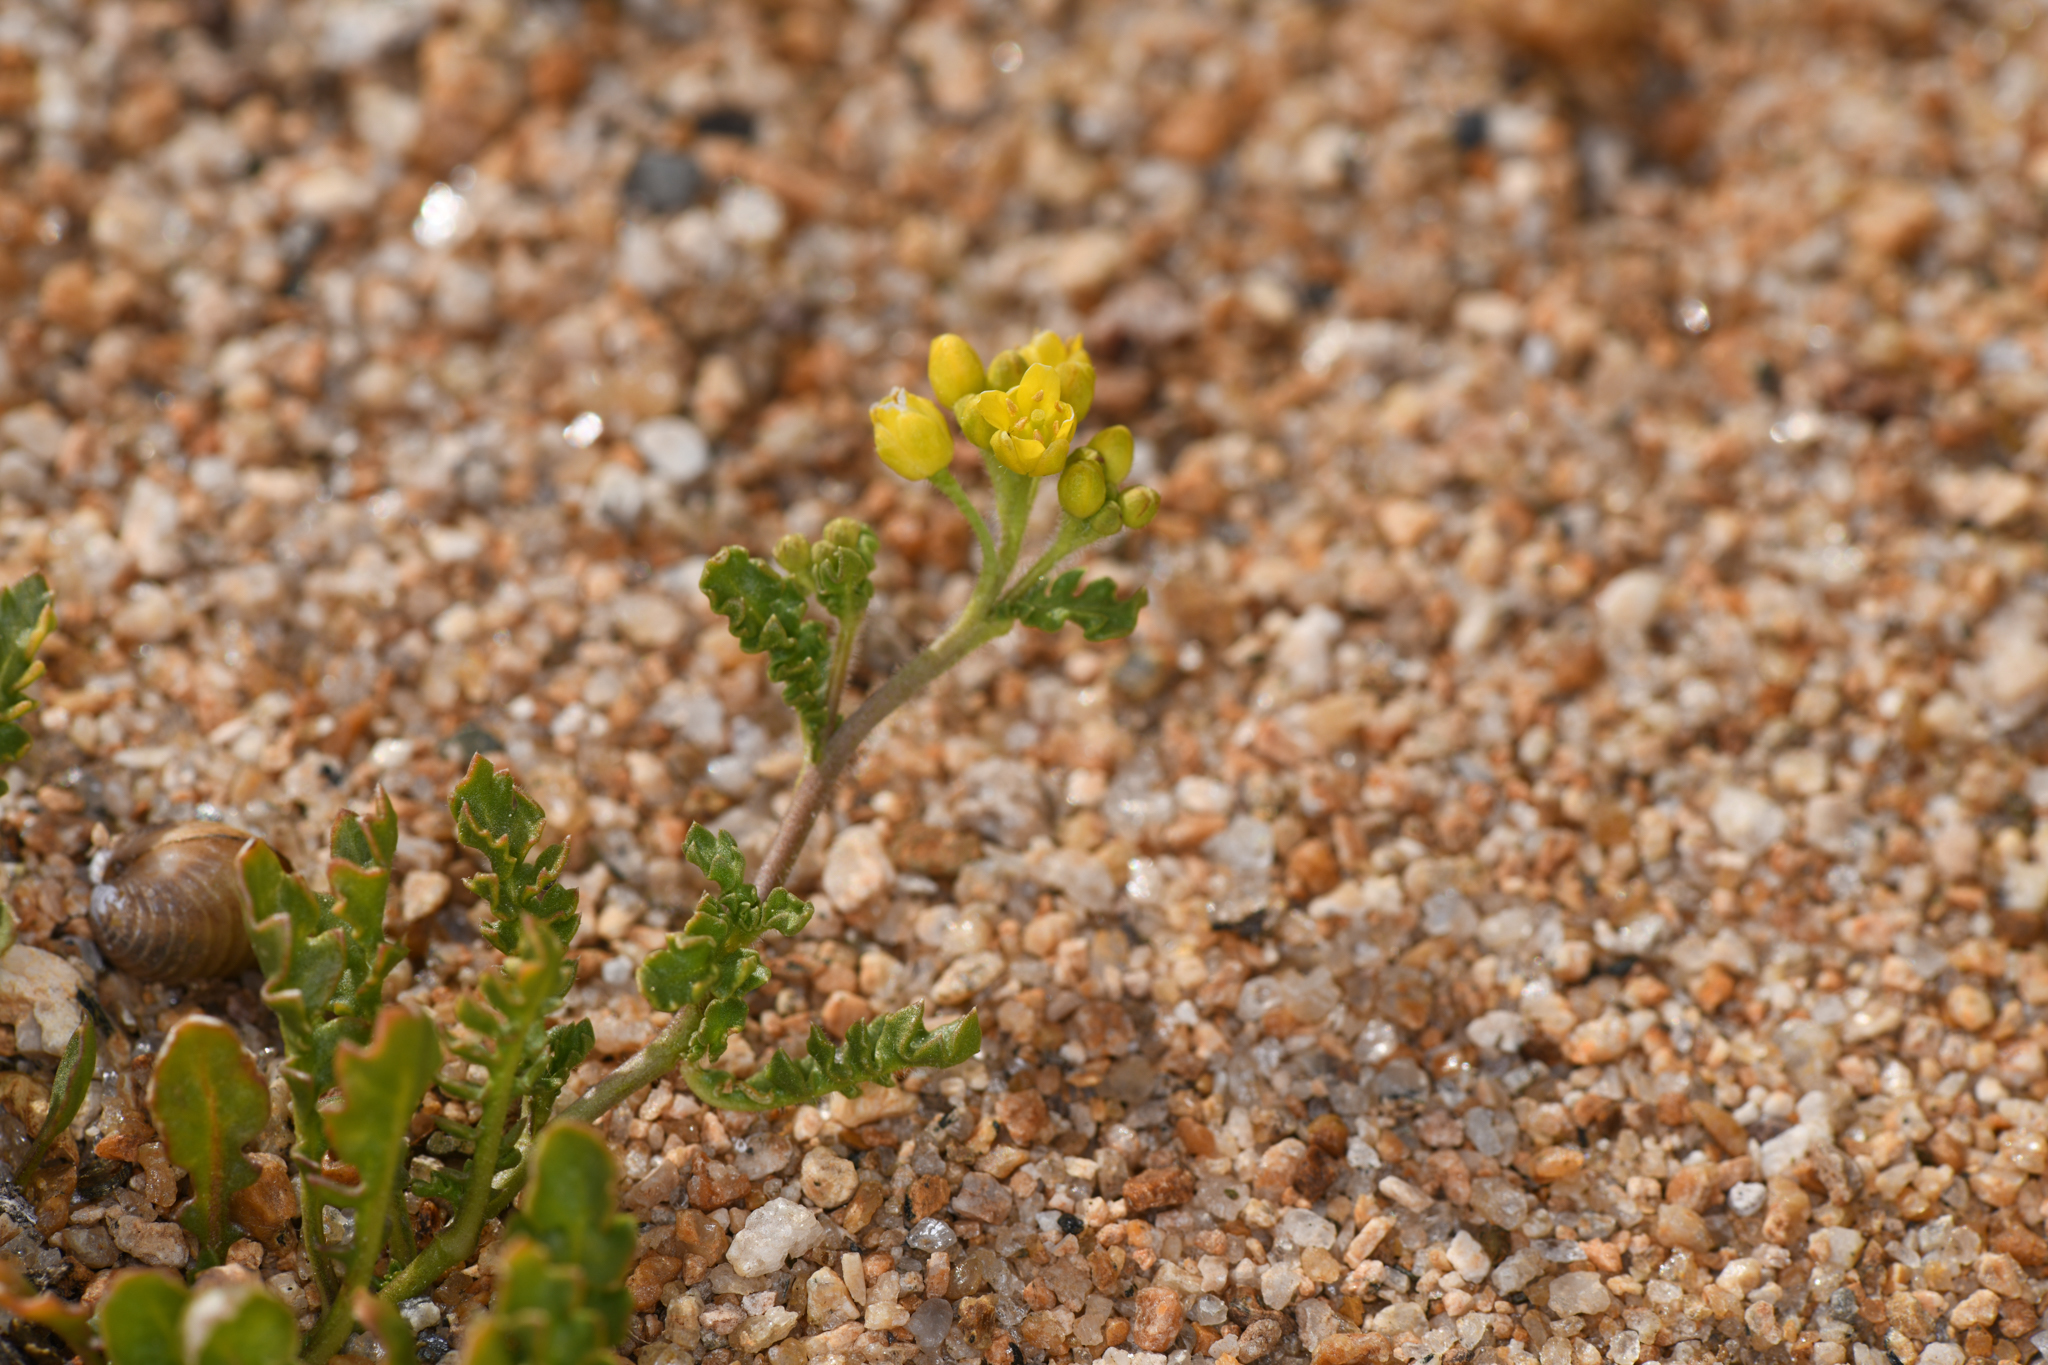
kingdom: Plantae
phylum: Tracheophyta
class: Magnoliopsida
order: Brassicales
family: Brassicaceae
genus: Rorippa
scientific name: Rorippa subumbellata
